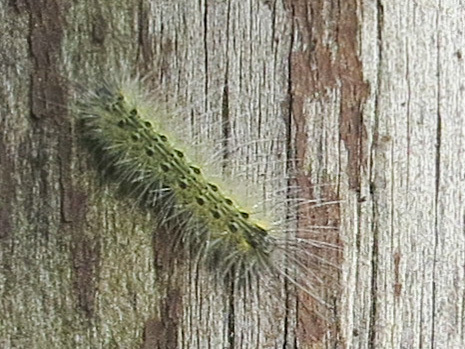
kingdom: Animalia
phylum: Arthropoda
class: Insecta
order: Lepidoptera
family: Erebidae
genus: Hyphantria
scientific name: Hyphantria cunea
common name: American white moth
